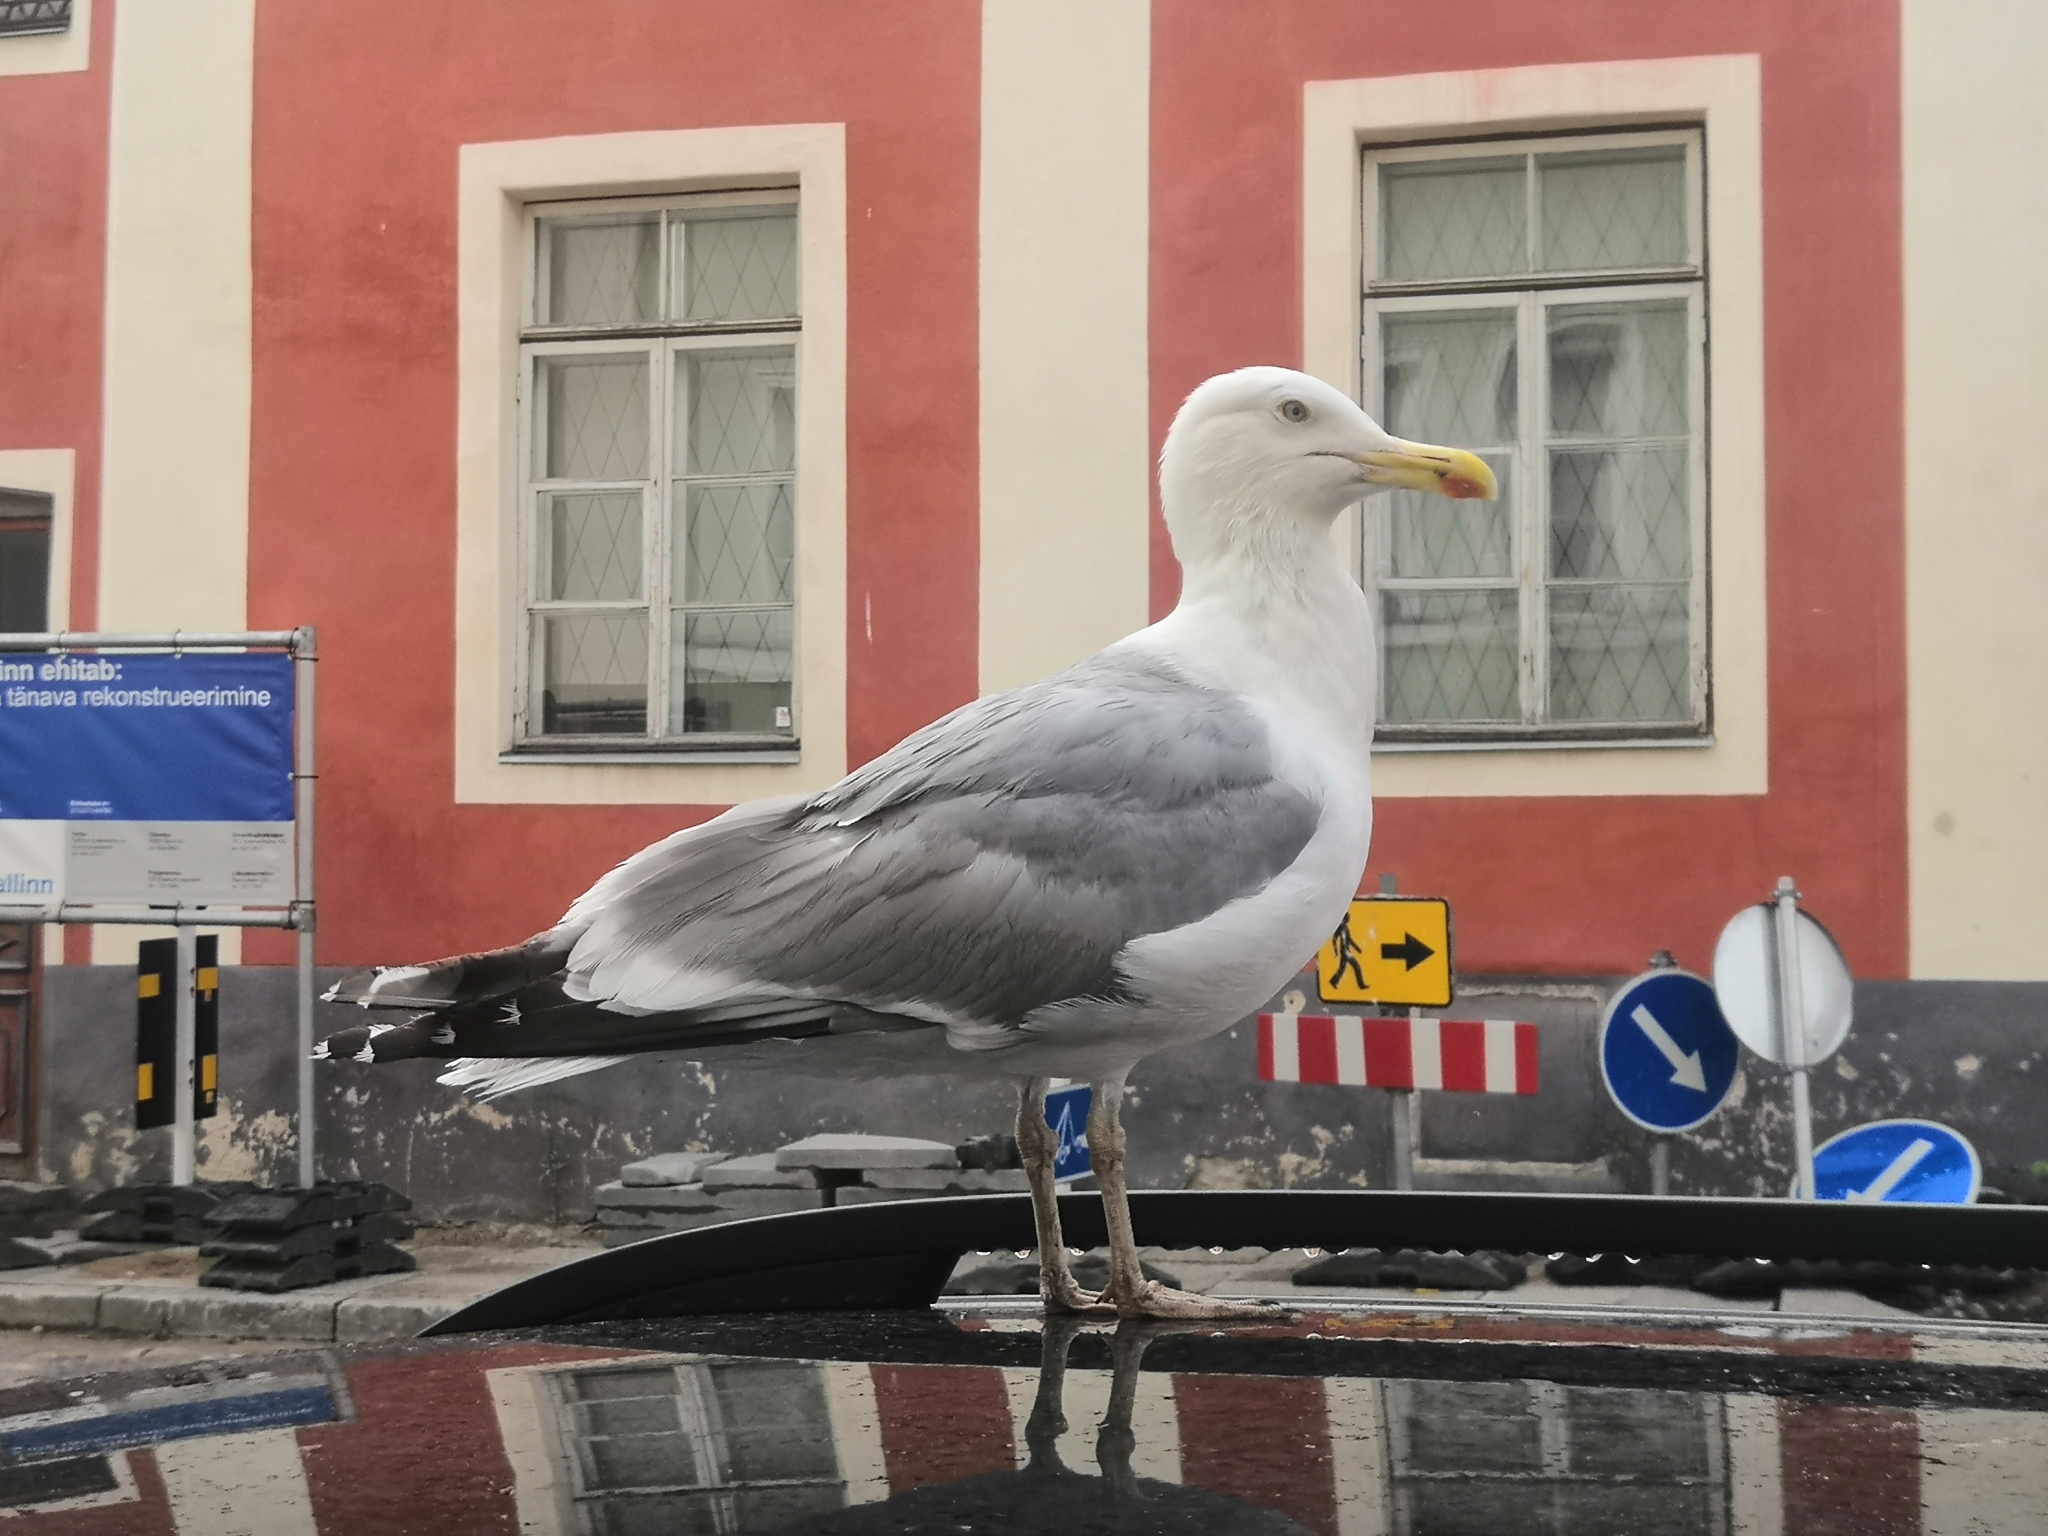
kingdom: Animalia
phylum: Chordata
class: Aves
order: Charadriiformes
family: Laridae
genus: Larus
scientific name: Larus argentatus
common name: Herring gull
